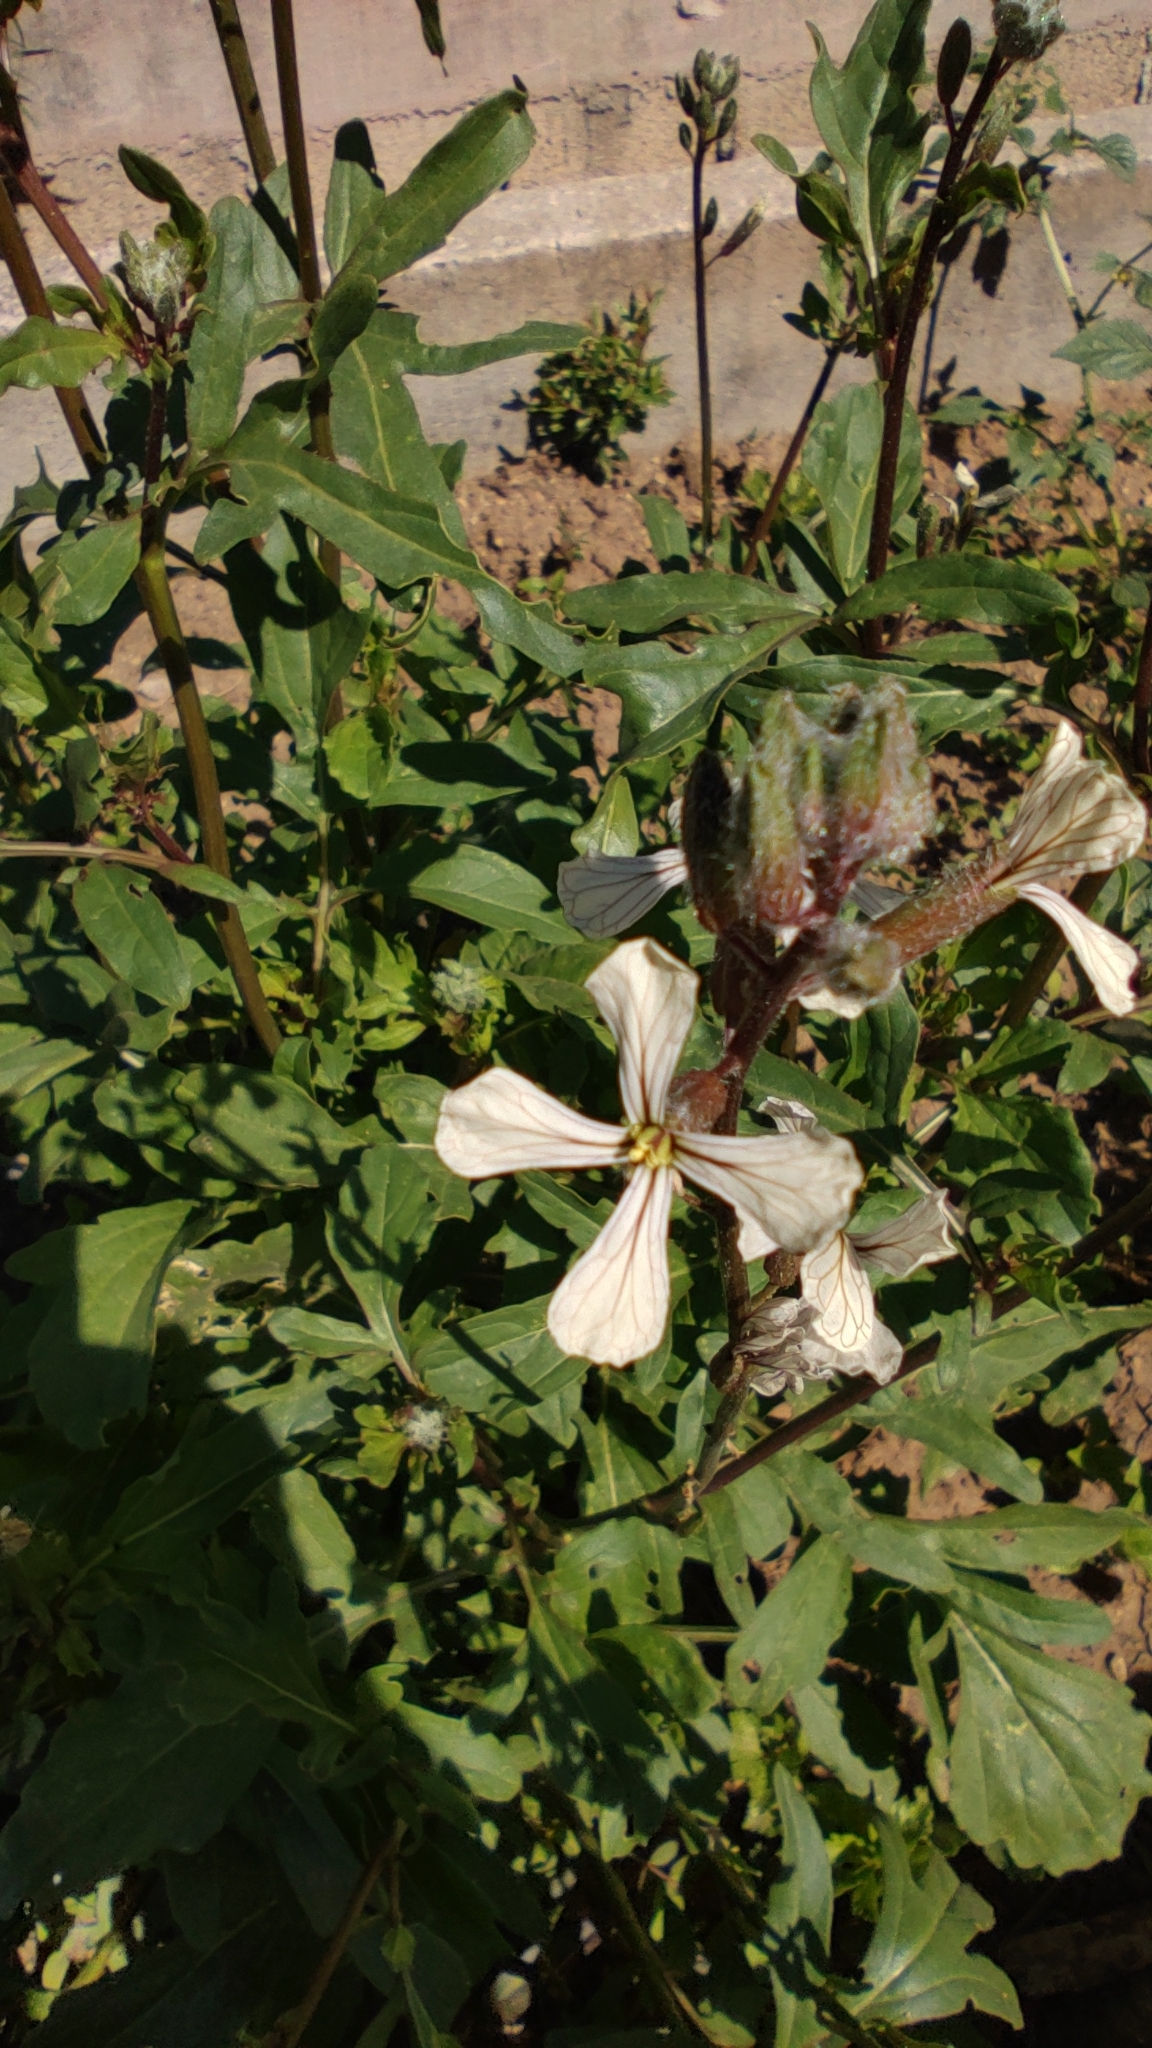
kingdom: Plantae
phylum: Tracheophyta
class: Magnoliopsida
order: Brassicales
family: Brassicaceae
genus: Eruca
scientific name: Eruca vesicaria
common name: Garden rocket
